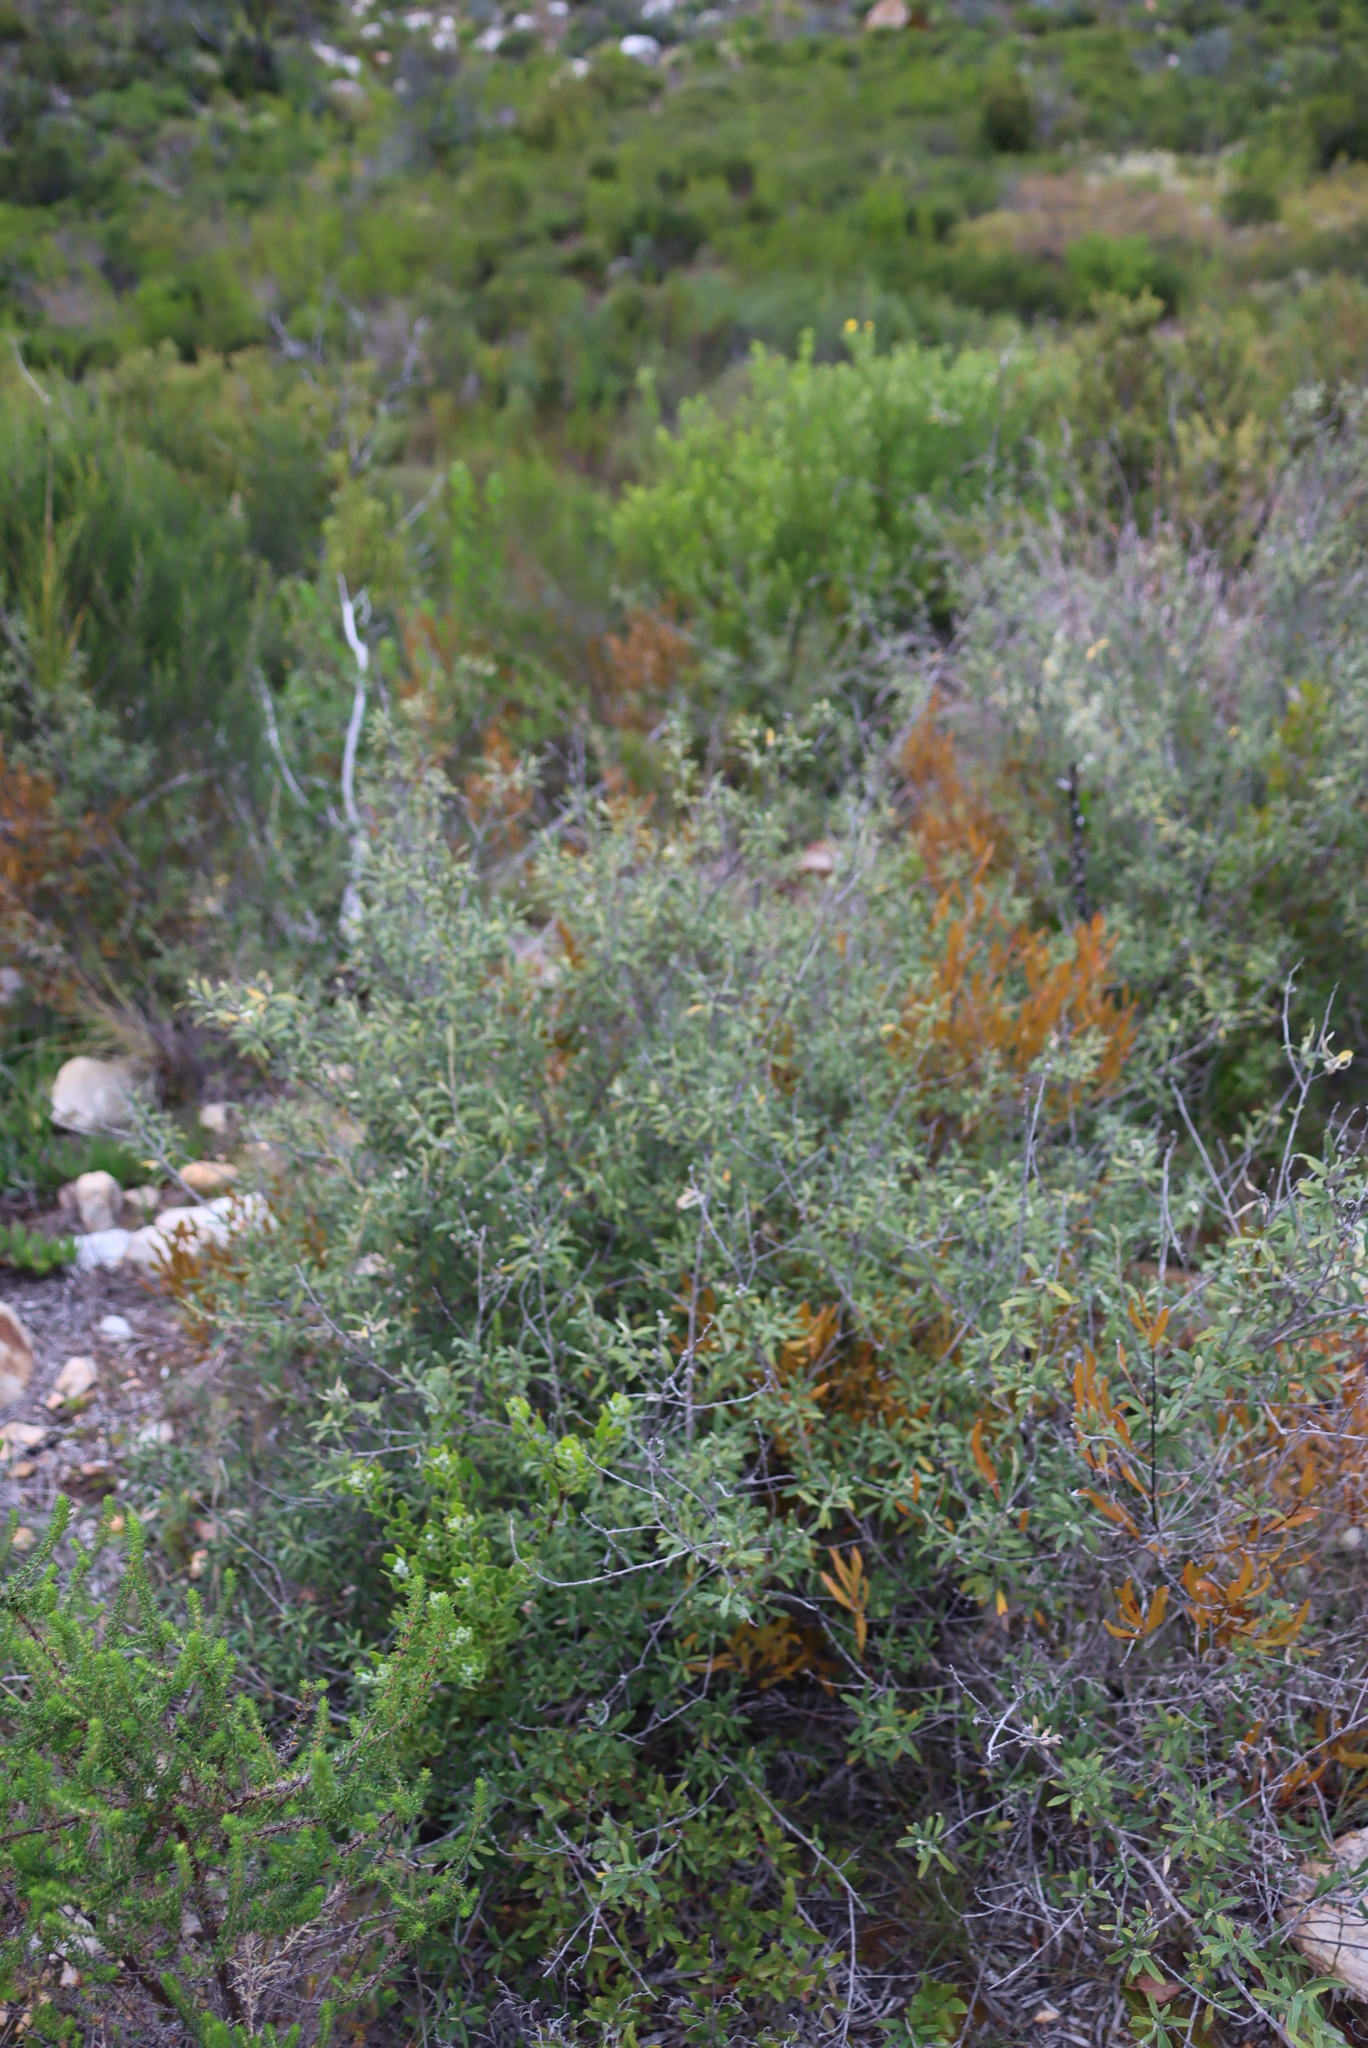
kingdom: Plantae
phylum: Tracheophyta
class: Magnoliopsida
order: Lamiales
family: Scrophulariaceae
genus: Buddleja
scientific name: Buddleja saligna
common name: False olive
